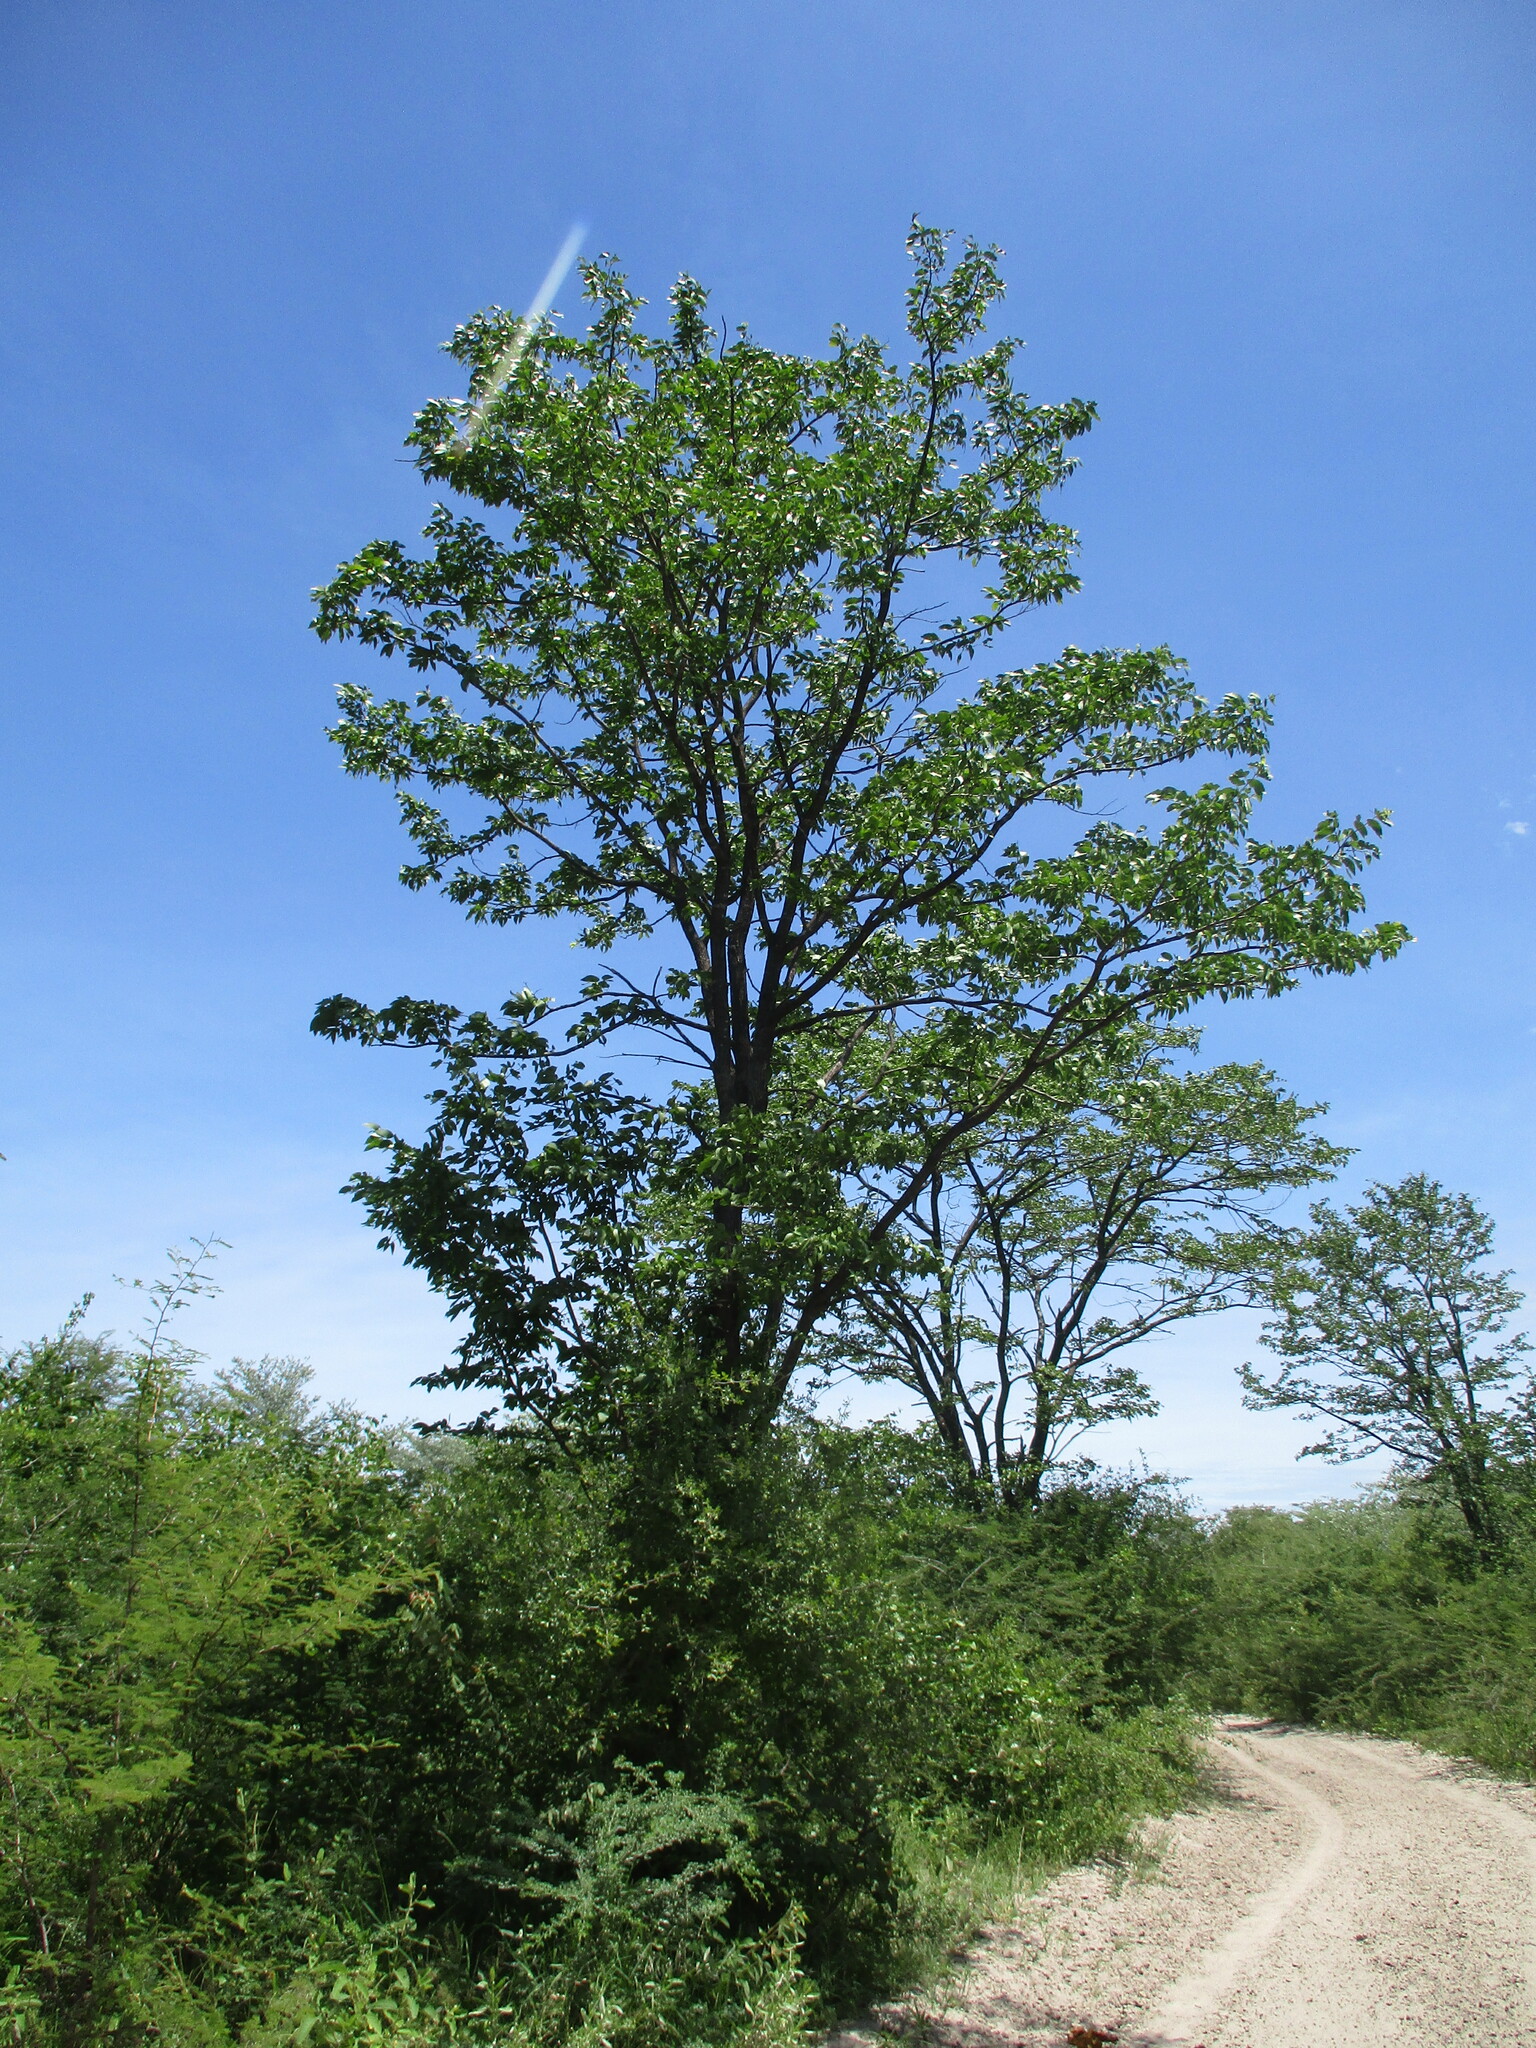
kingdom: Plantae
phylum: Tracheophyta
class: Magnoliopsida
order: Fabales
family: Fabaceae
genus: Colophospermum
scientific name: Colophospermum mopane
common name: Mopane
